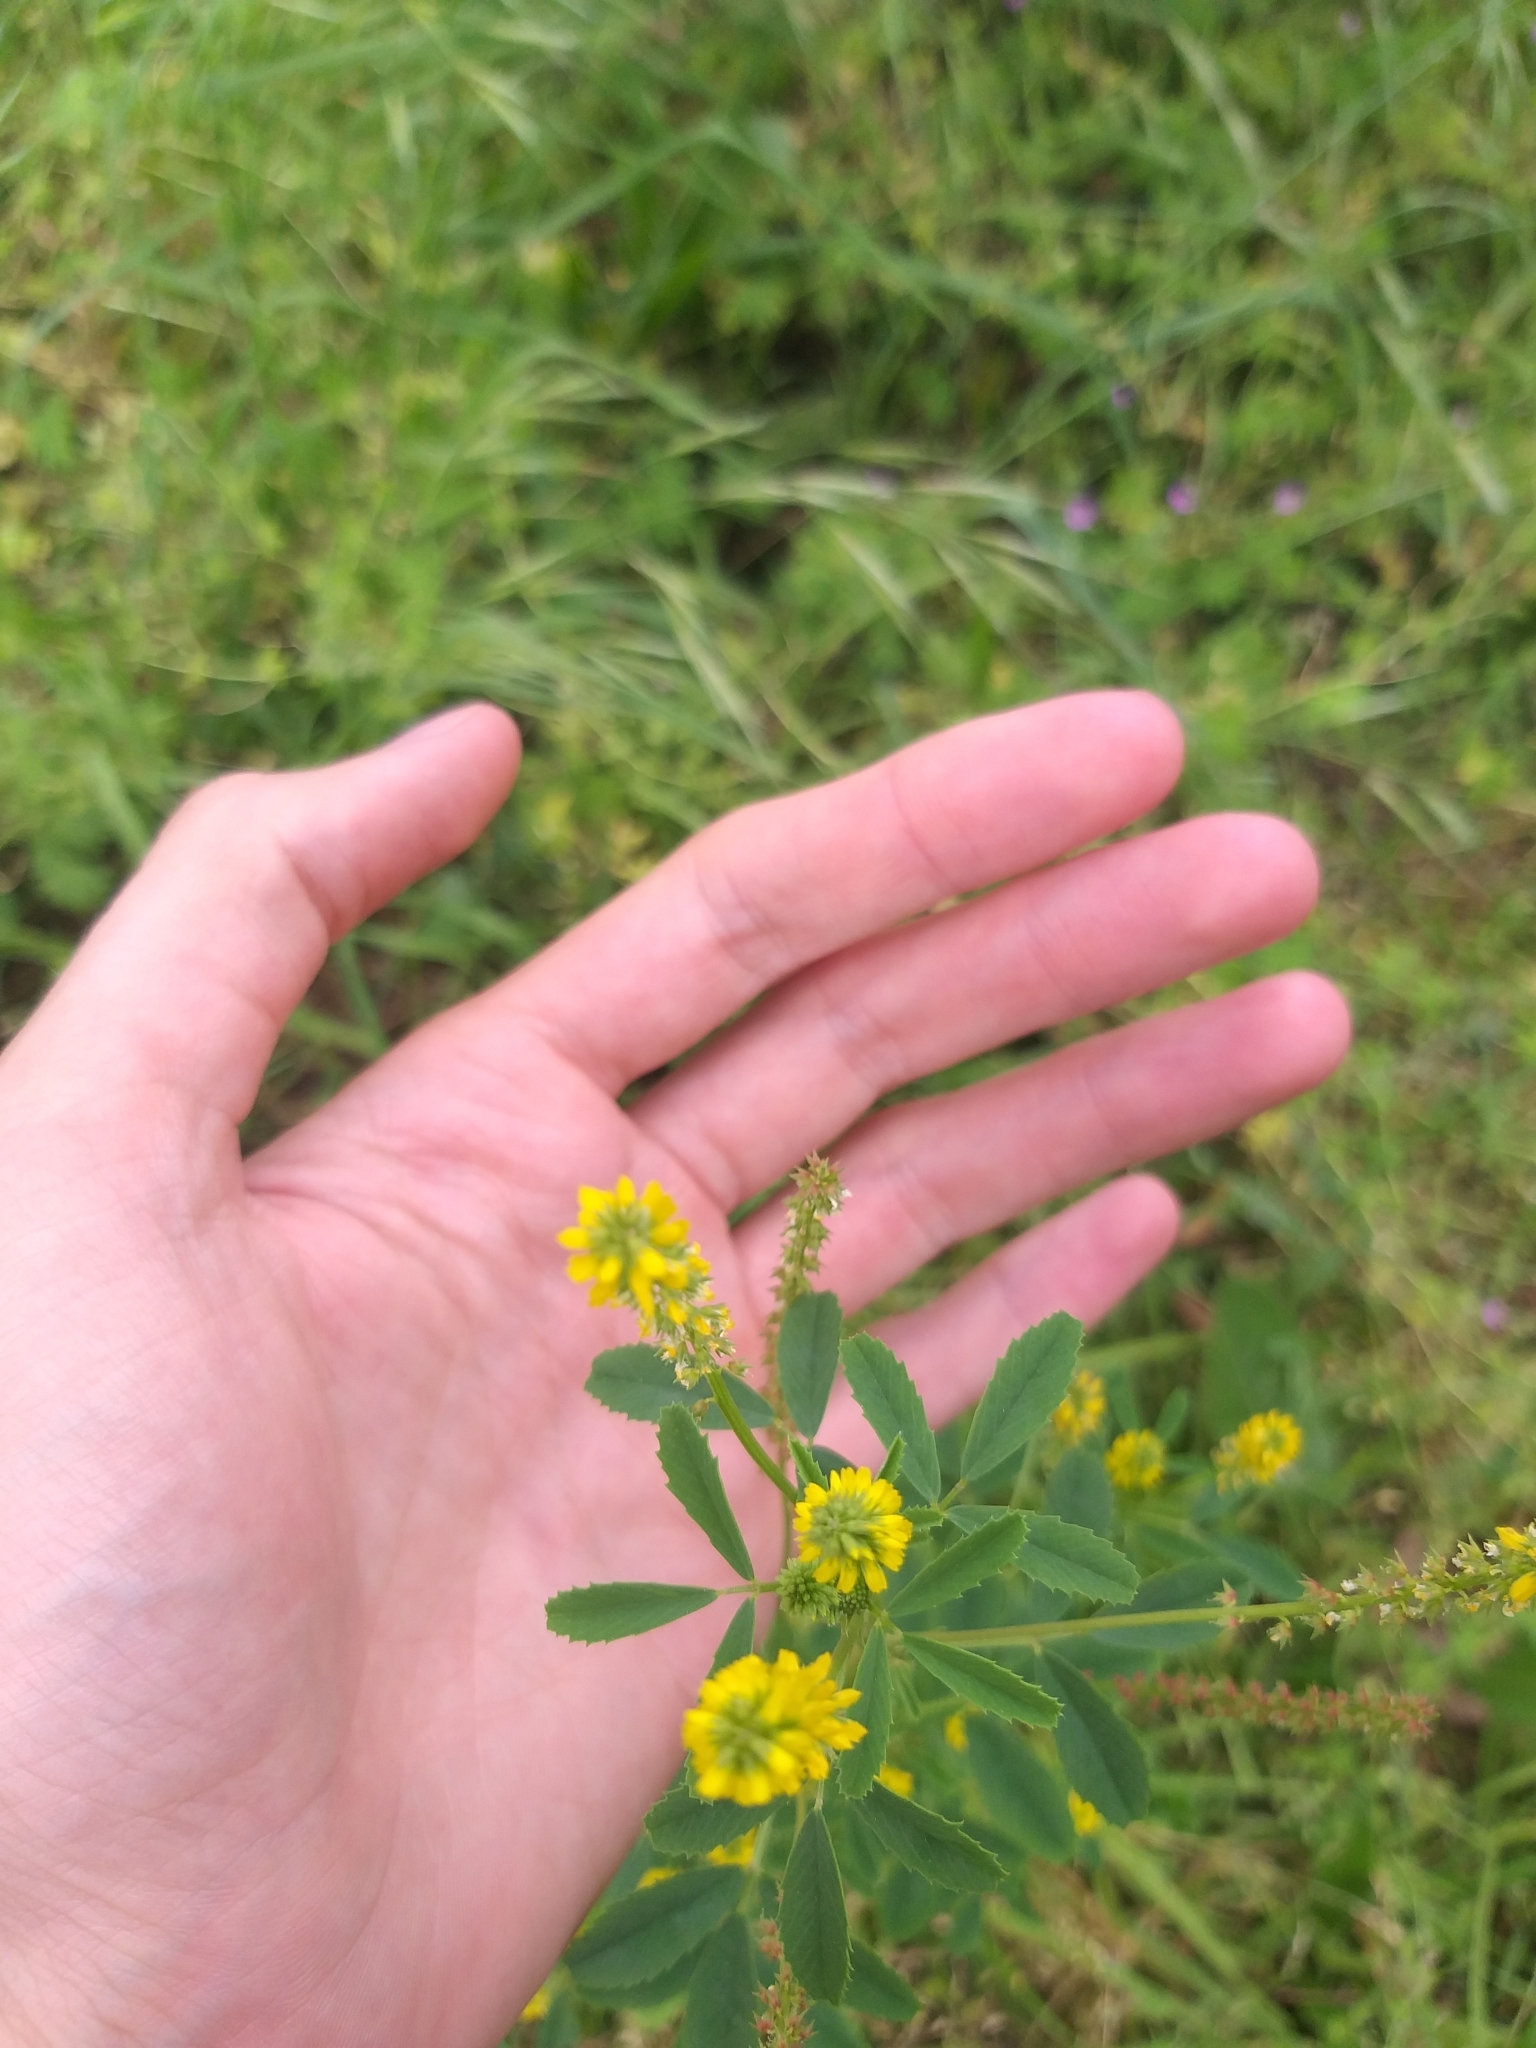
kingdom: Plantae
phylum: Tracheophyta
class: Magnoliopsida
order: Fabales
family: Fabaceae
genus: Melilotus
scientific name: Melilotus indicus
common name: Small melilot
